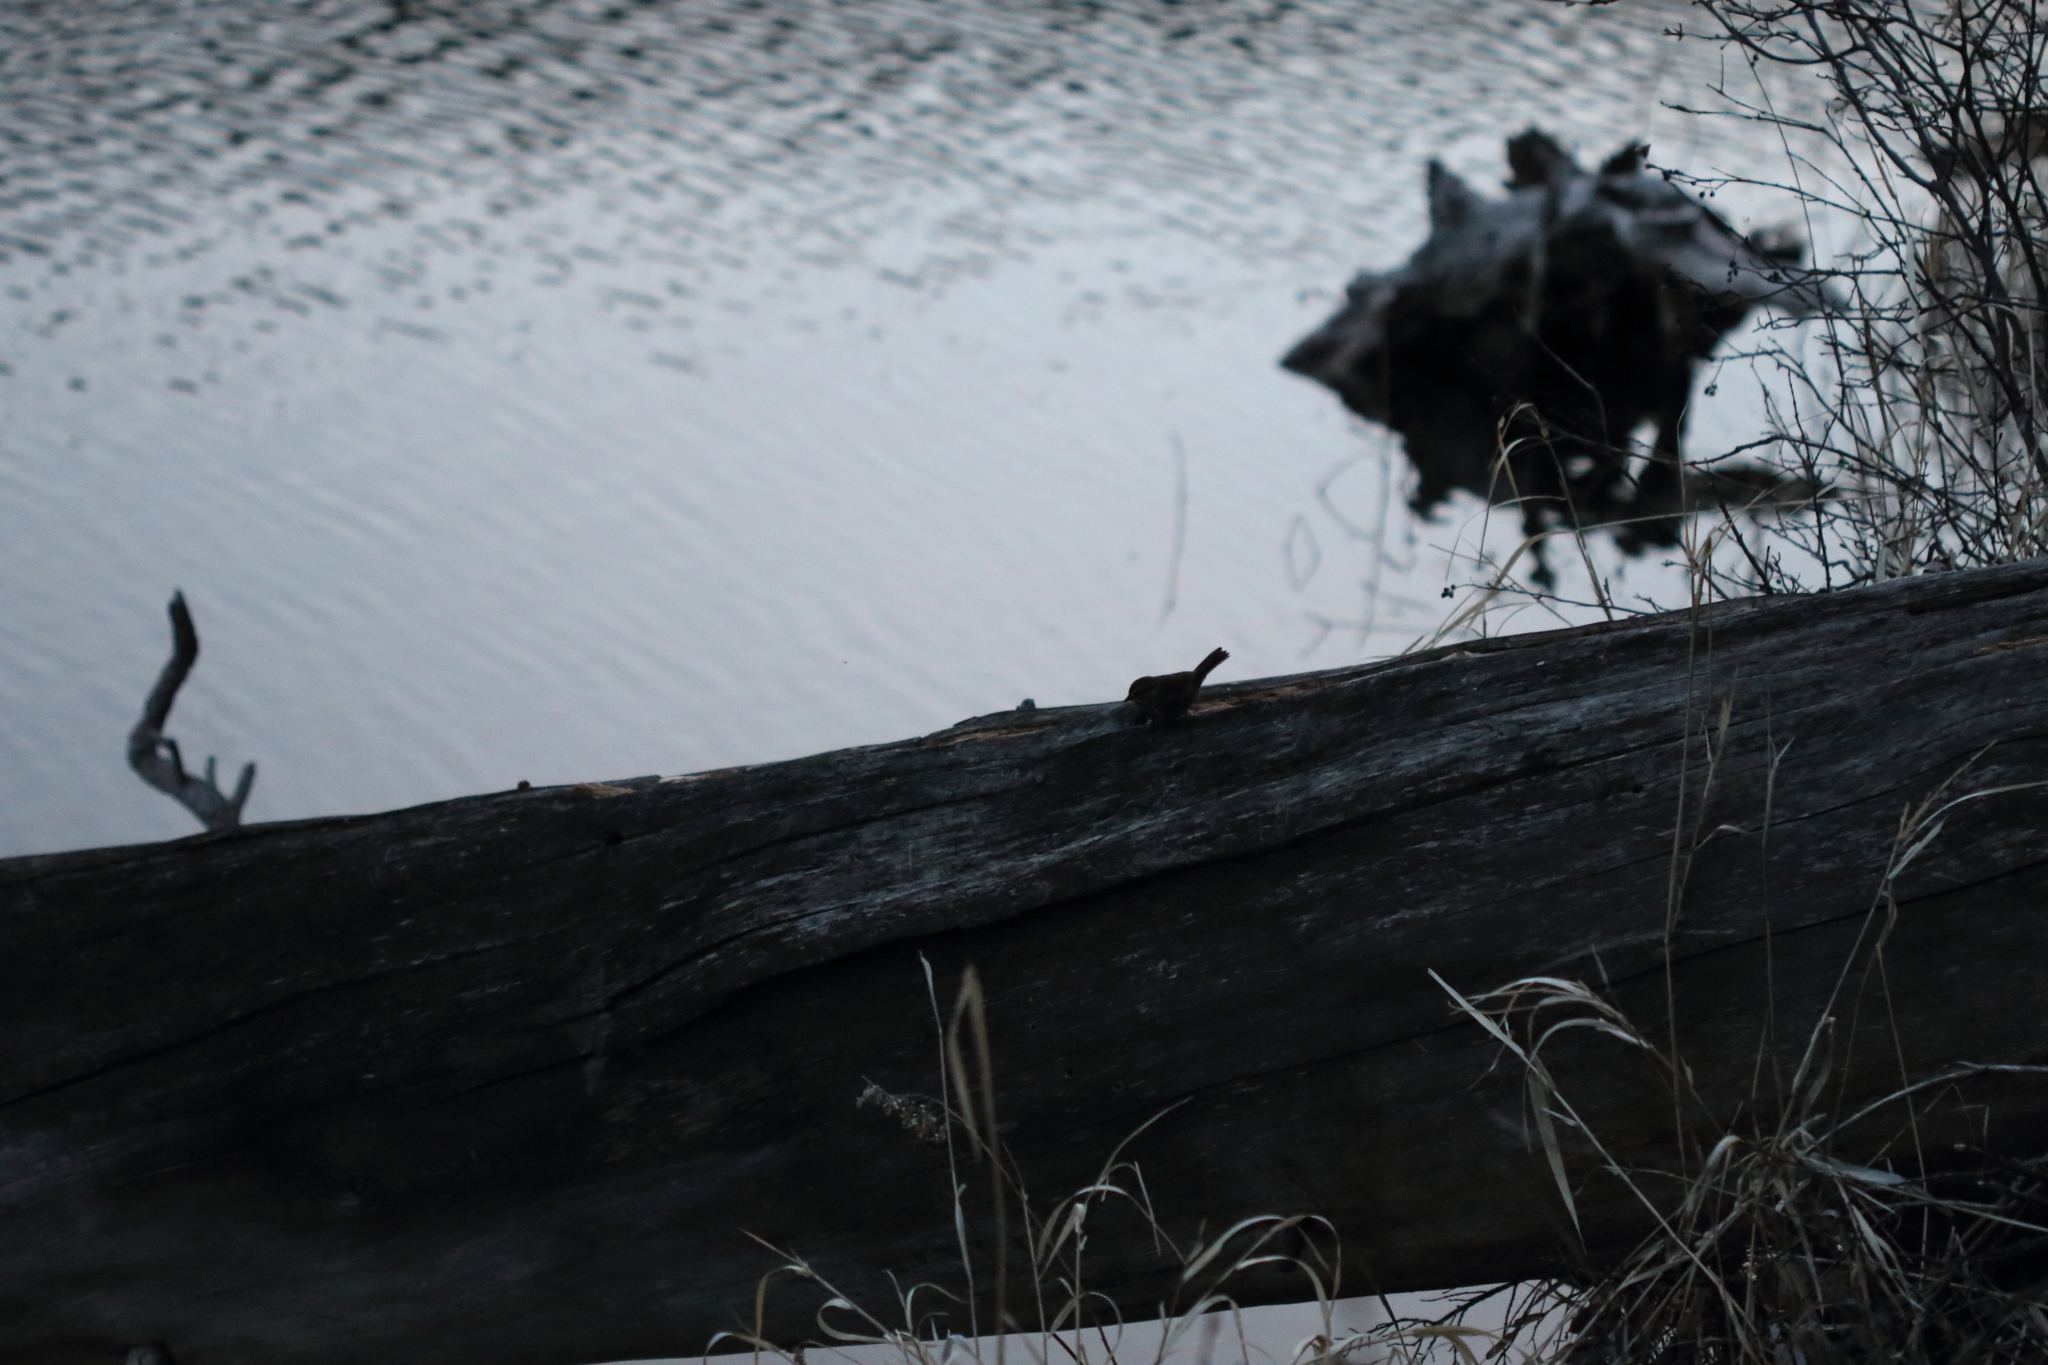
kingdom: Animalia
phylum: Chordata
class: Aves
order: Passeriformes
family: Passerellidae
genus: Melospiza
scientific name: Melospiza melodia
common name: Song sparrow
